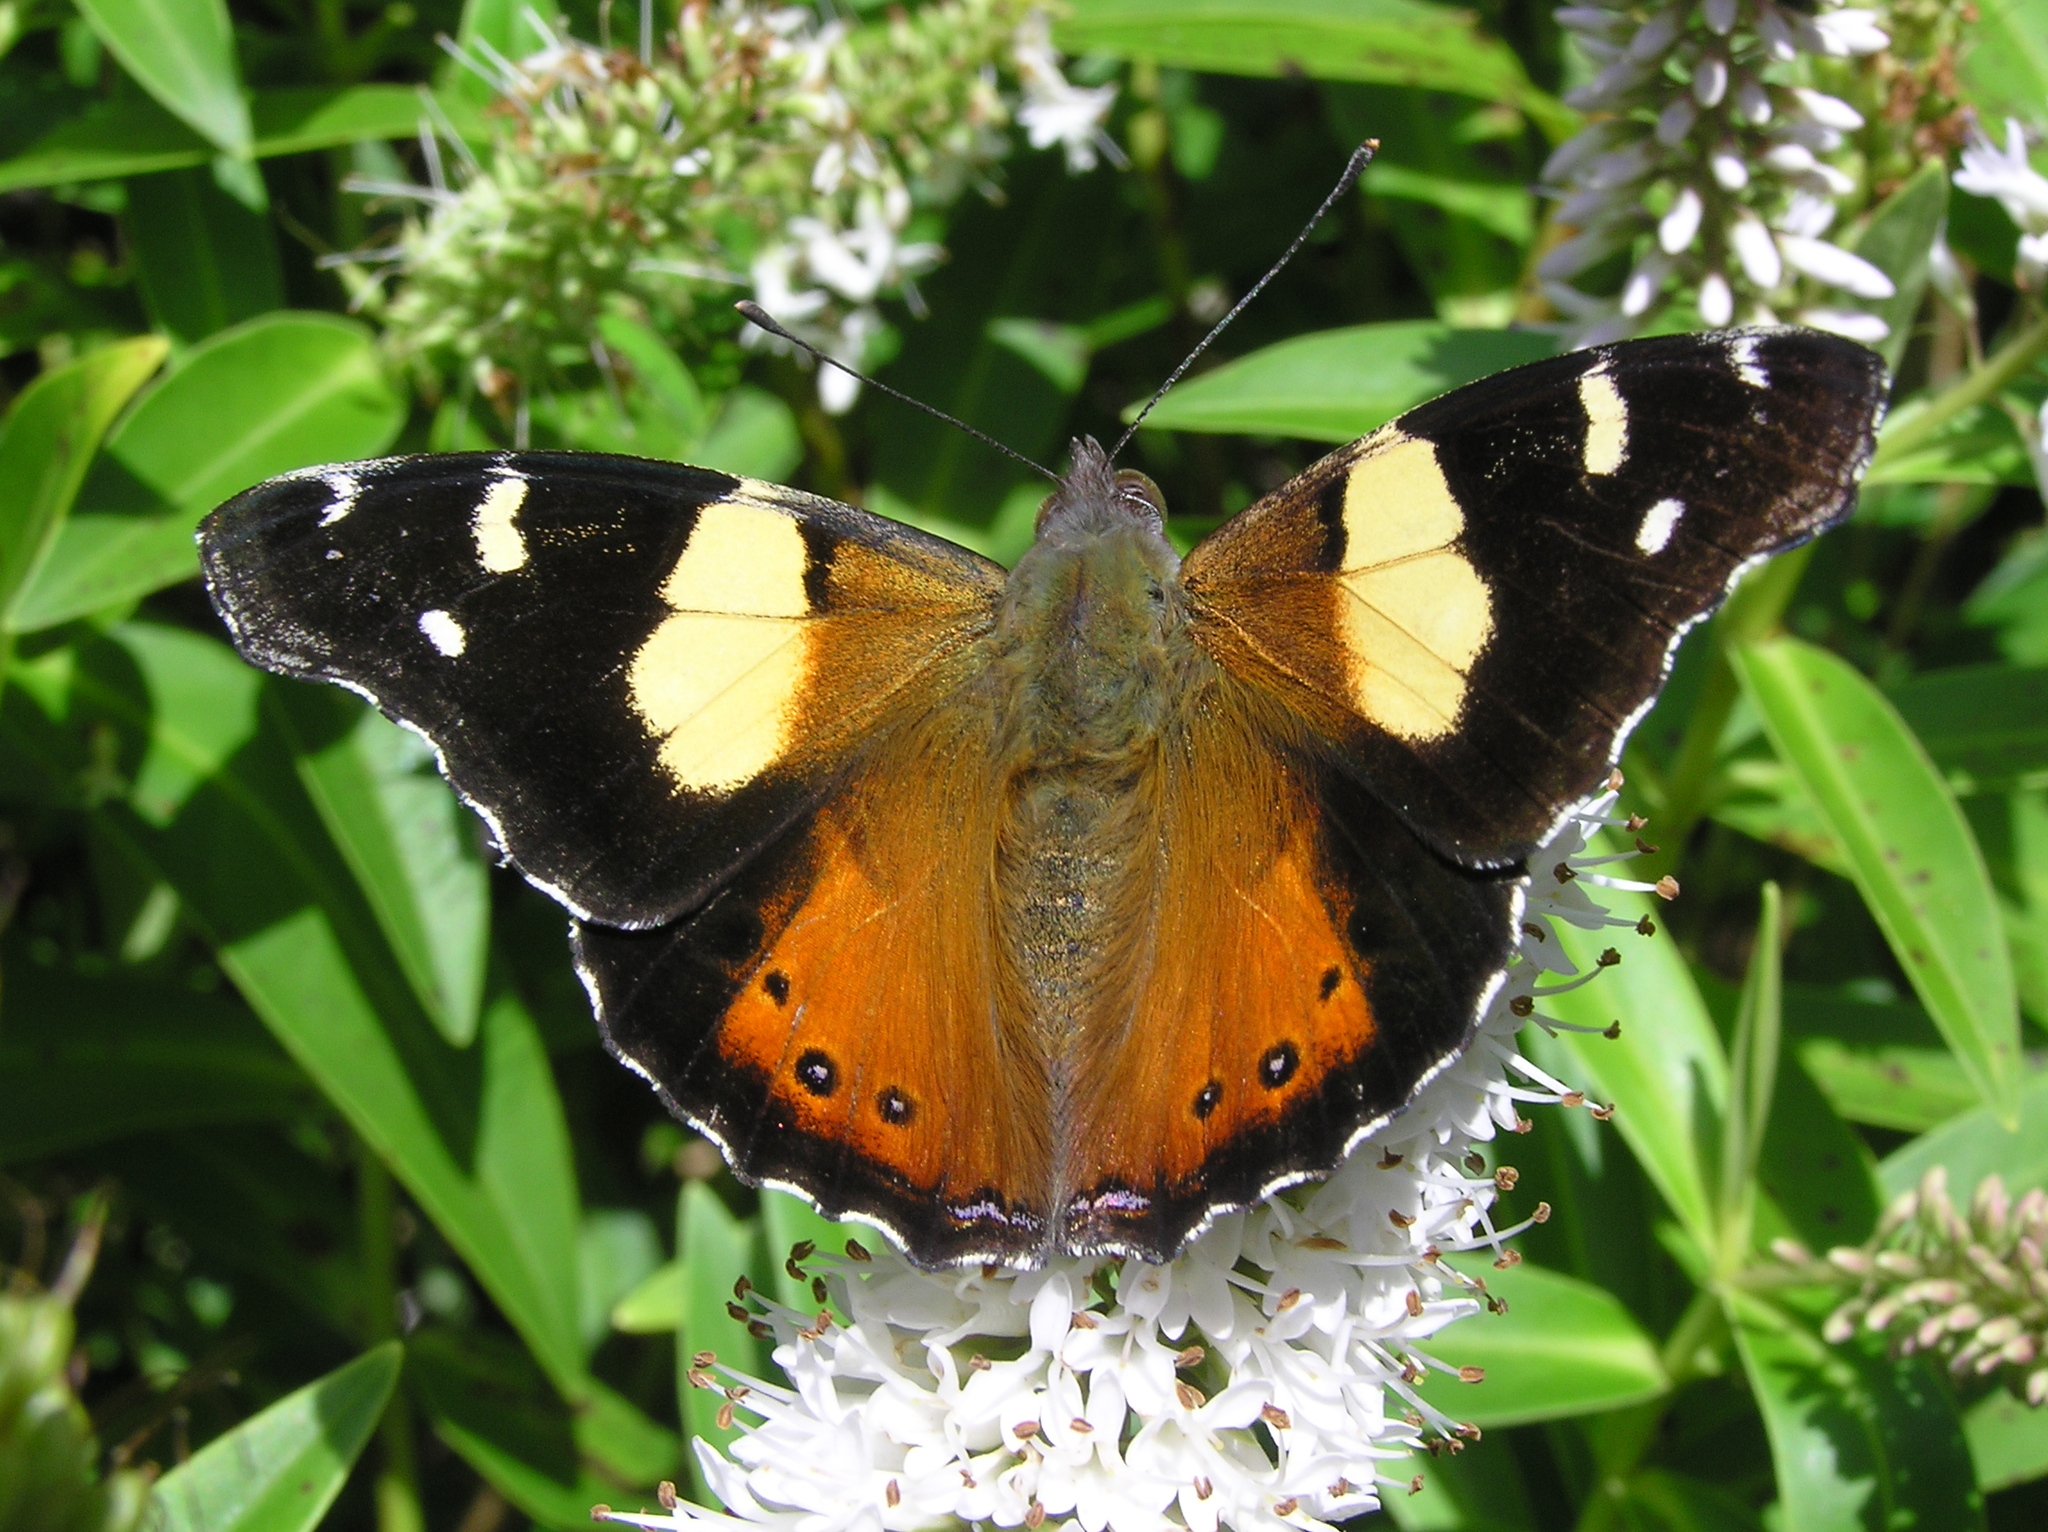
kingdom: Animalia
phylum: Arthropoda
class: Insecta
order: Lepidoptera
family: Nymphalidae
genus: Vanessa
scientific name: Vanessa itea
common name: Yellow admiral
